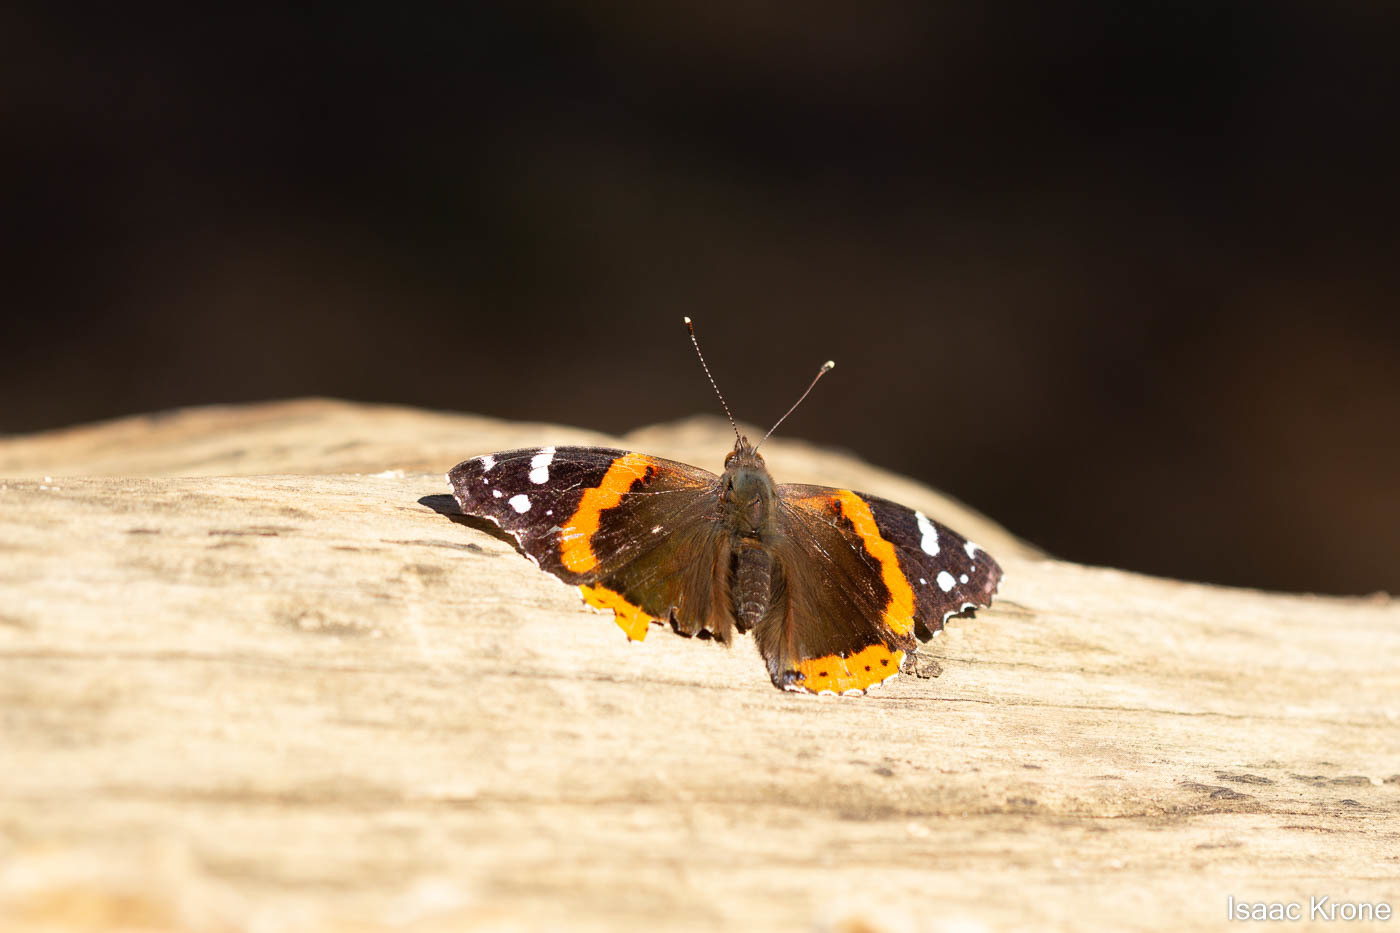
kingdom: Animalia
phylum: Arthropoda
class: Insecta
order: Lepidoptera
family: Nymphalidae
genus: Vanessa
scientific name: Vanessa atalanta
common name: Red admiral
